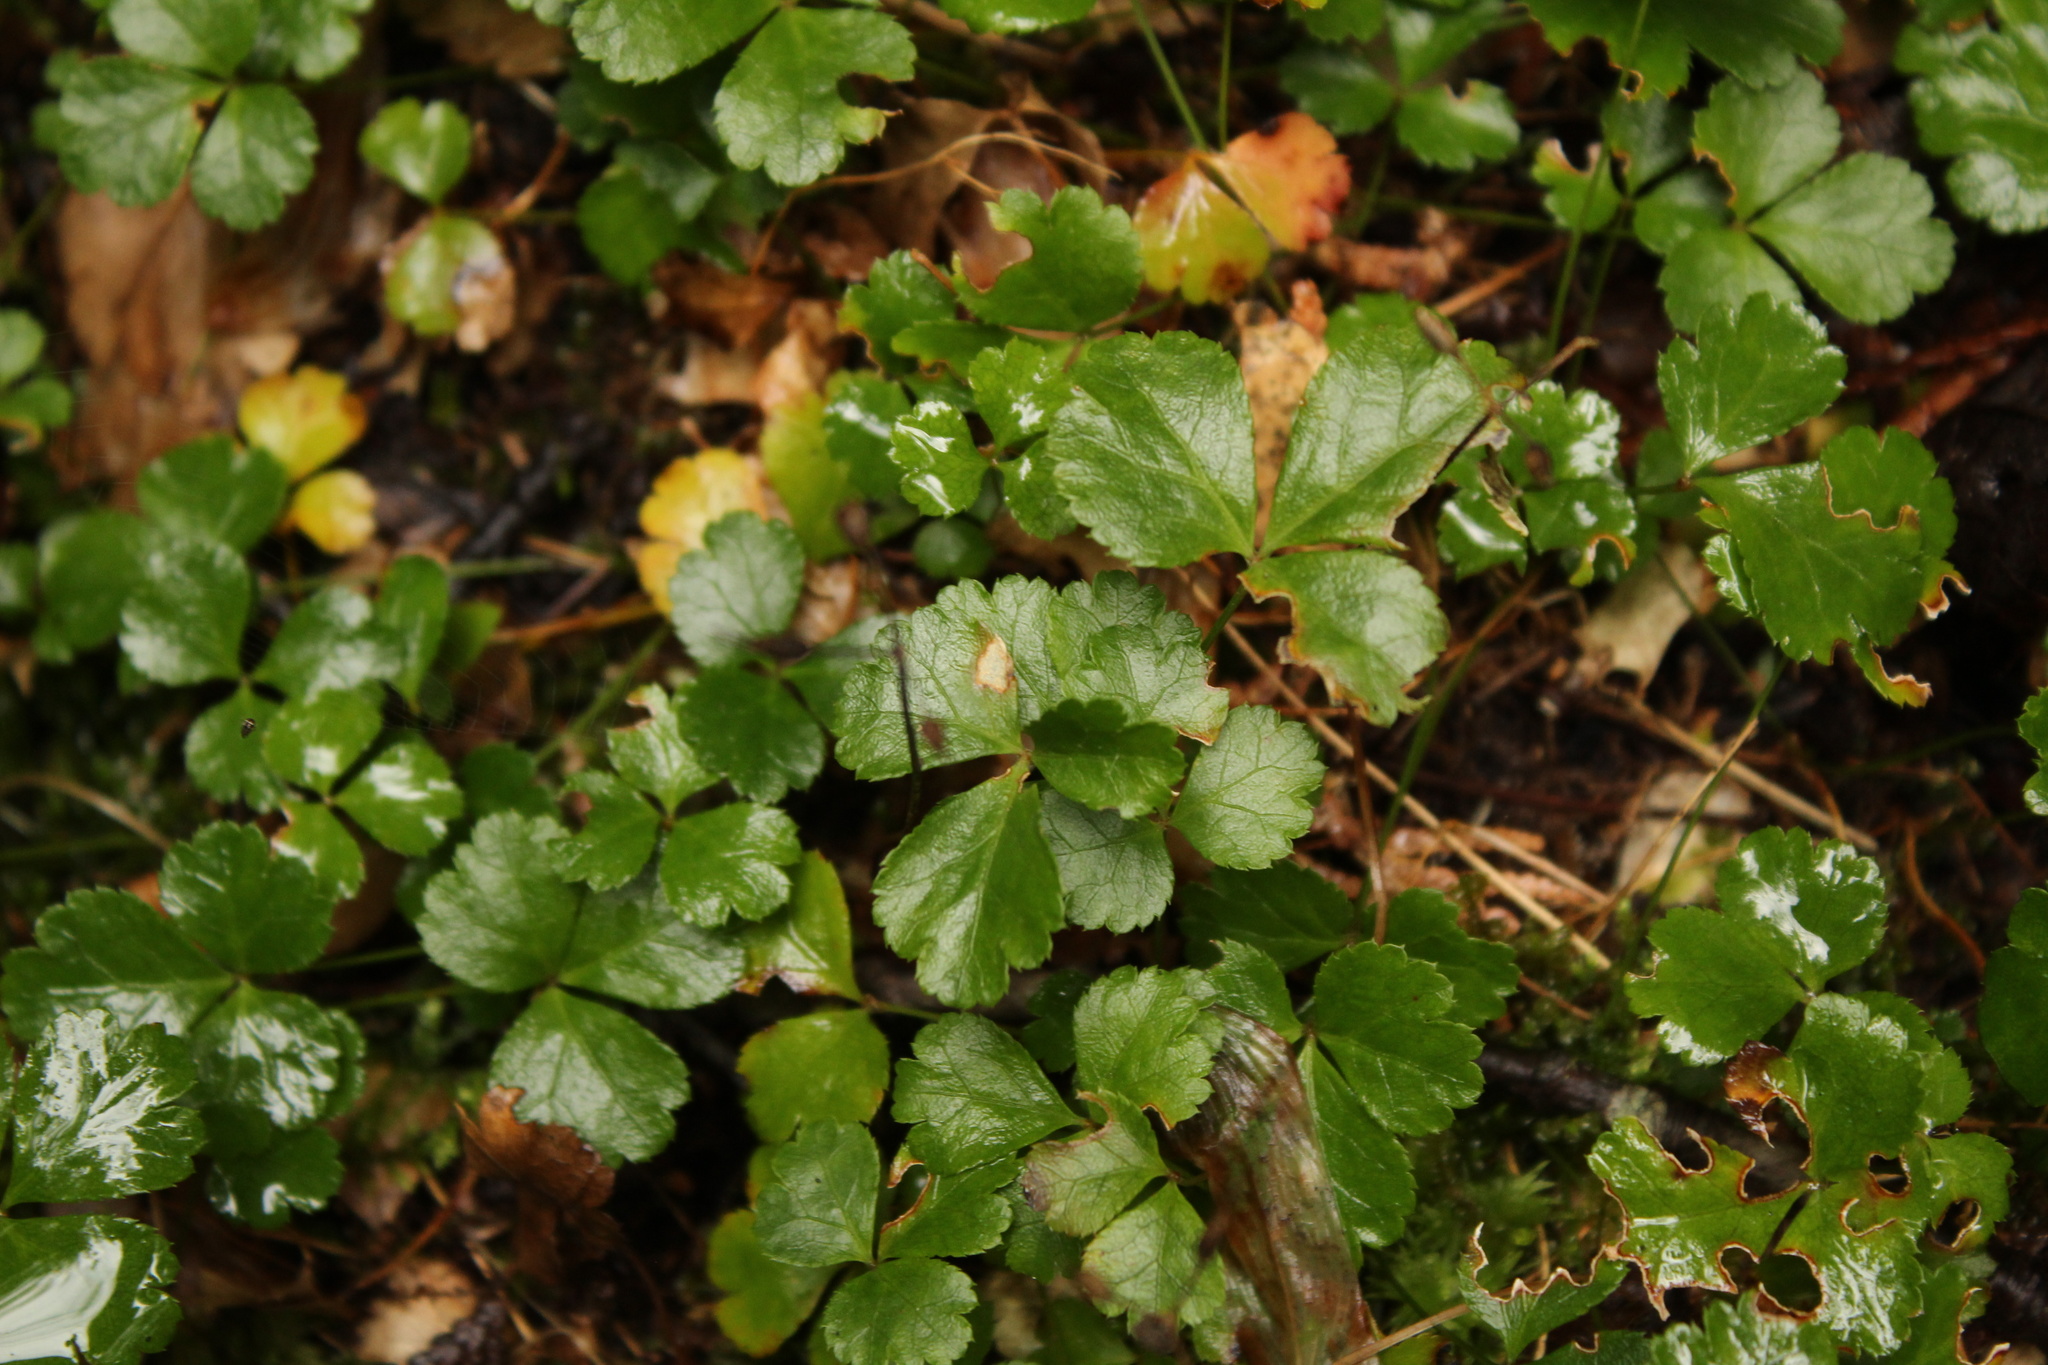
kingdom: Plantae
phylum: Tracheophyta
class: Magnoliopsida
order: Ranunculales
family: Ranunculaceae
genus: Coptis
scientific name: Coptis trifolia
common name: Canker-root
